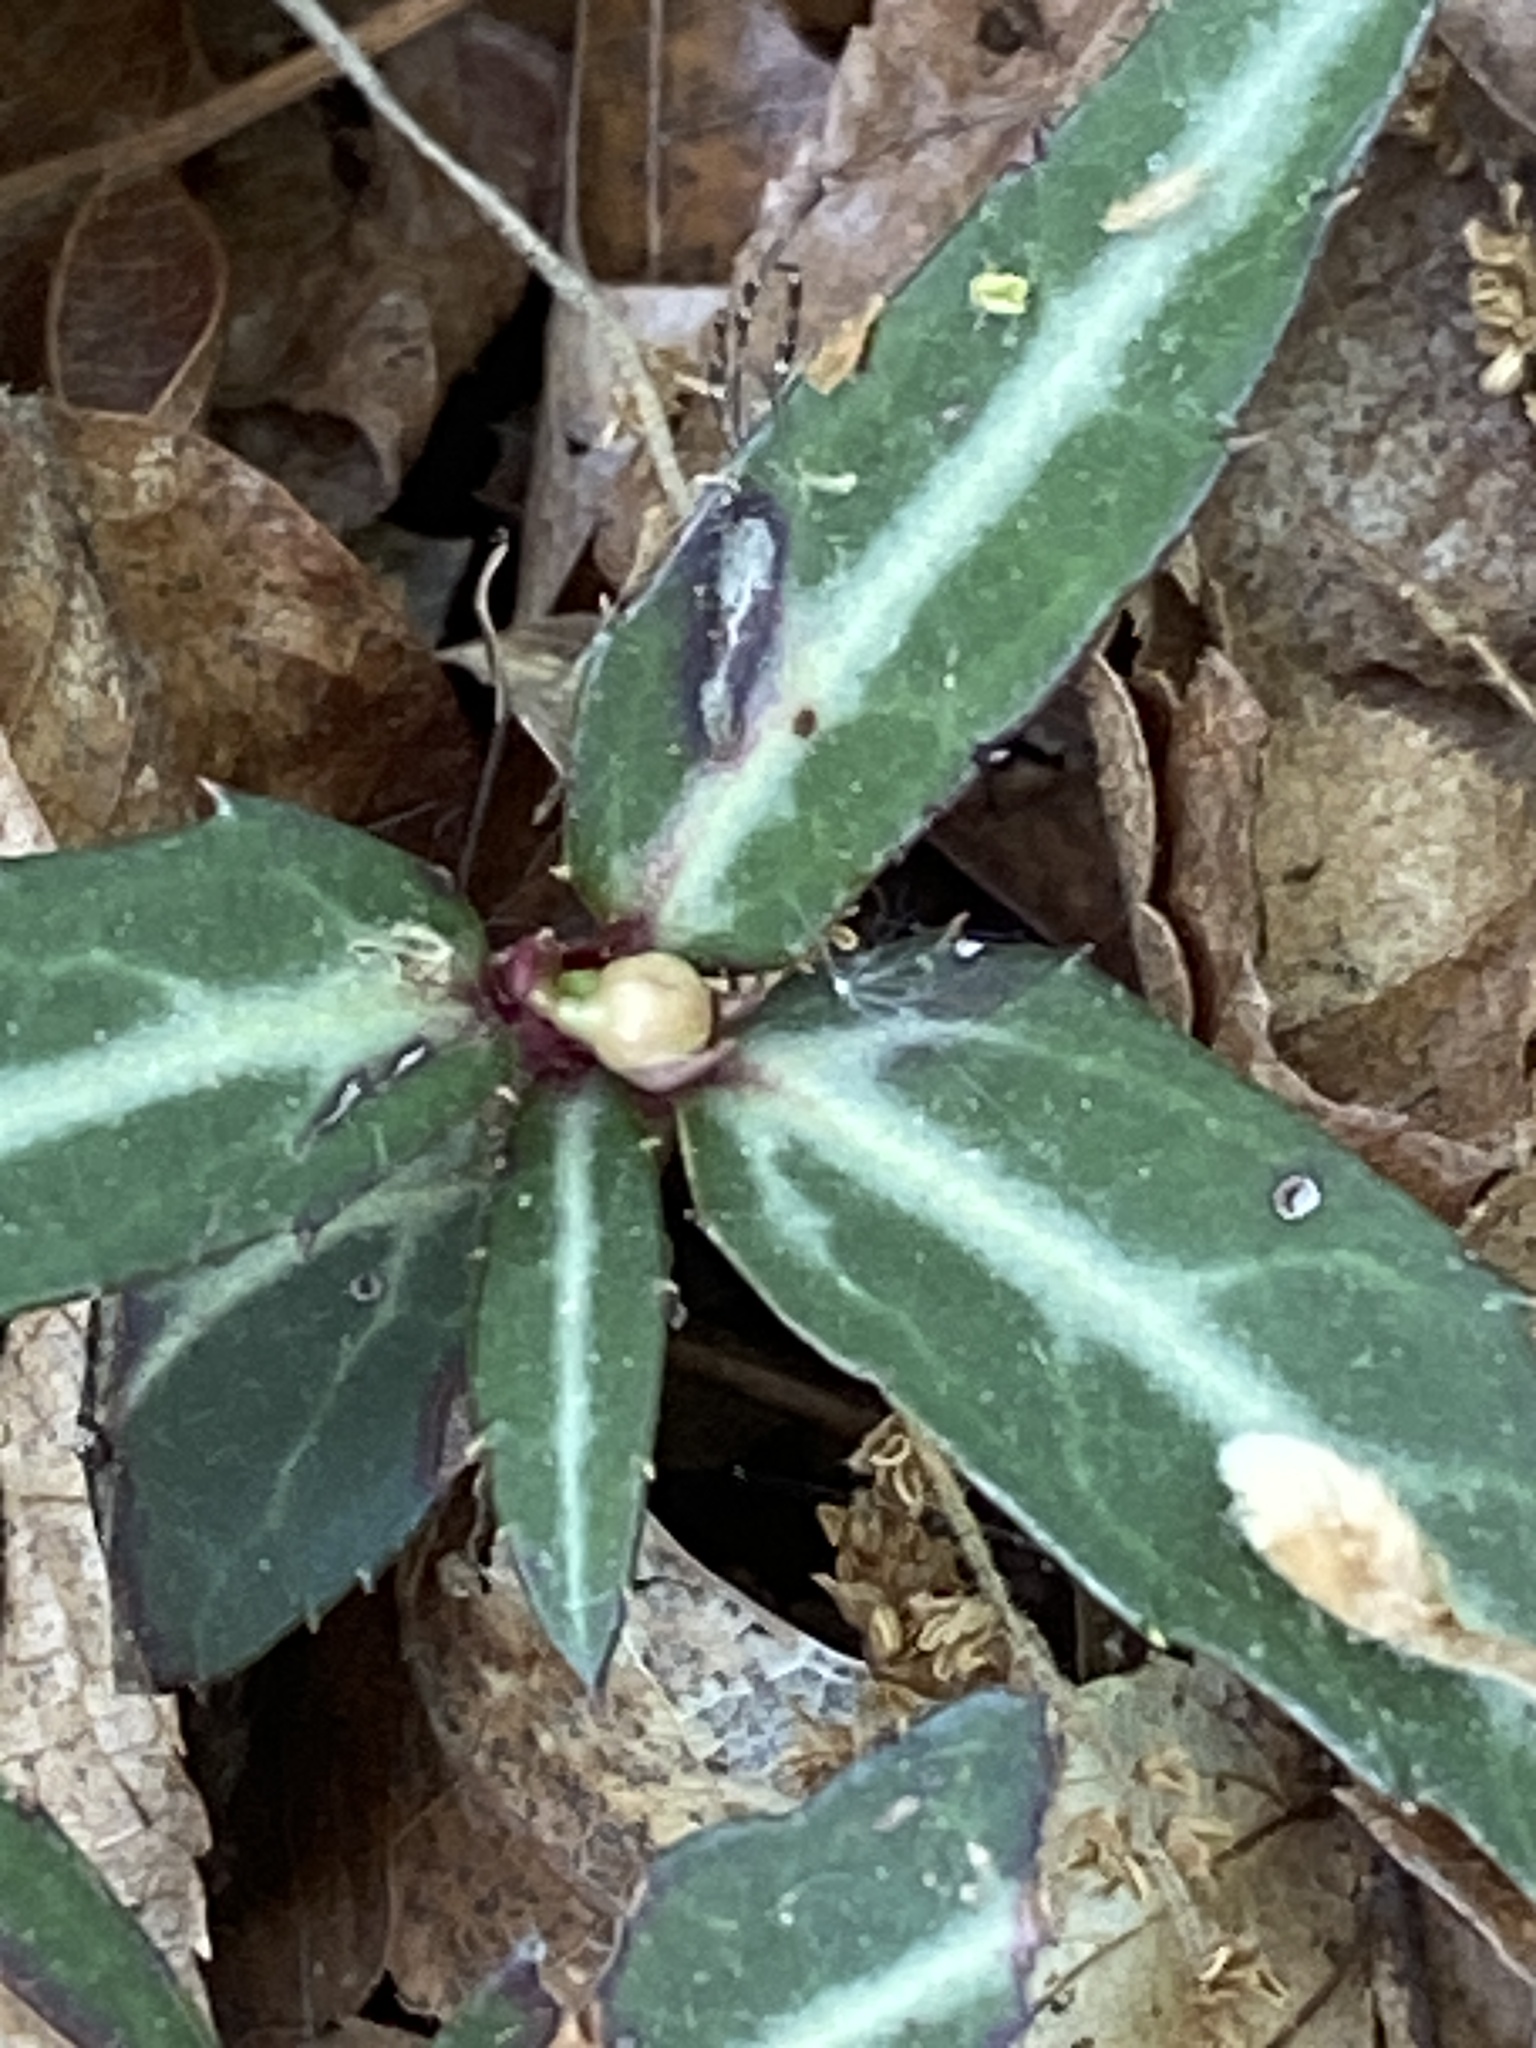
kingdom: Plantae
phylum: Tracheophyta
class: Magnoliopsida
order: Ericales
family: Ericaceae
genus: Chimaphila
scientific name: Chimaphila maculata
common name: Spotted pipsissewa
